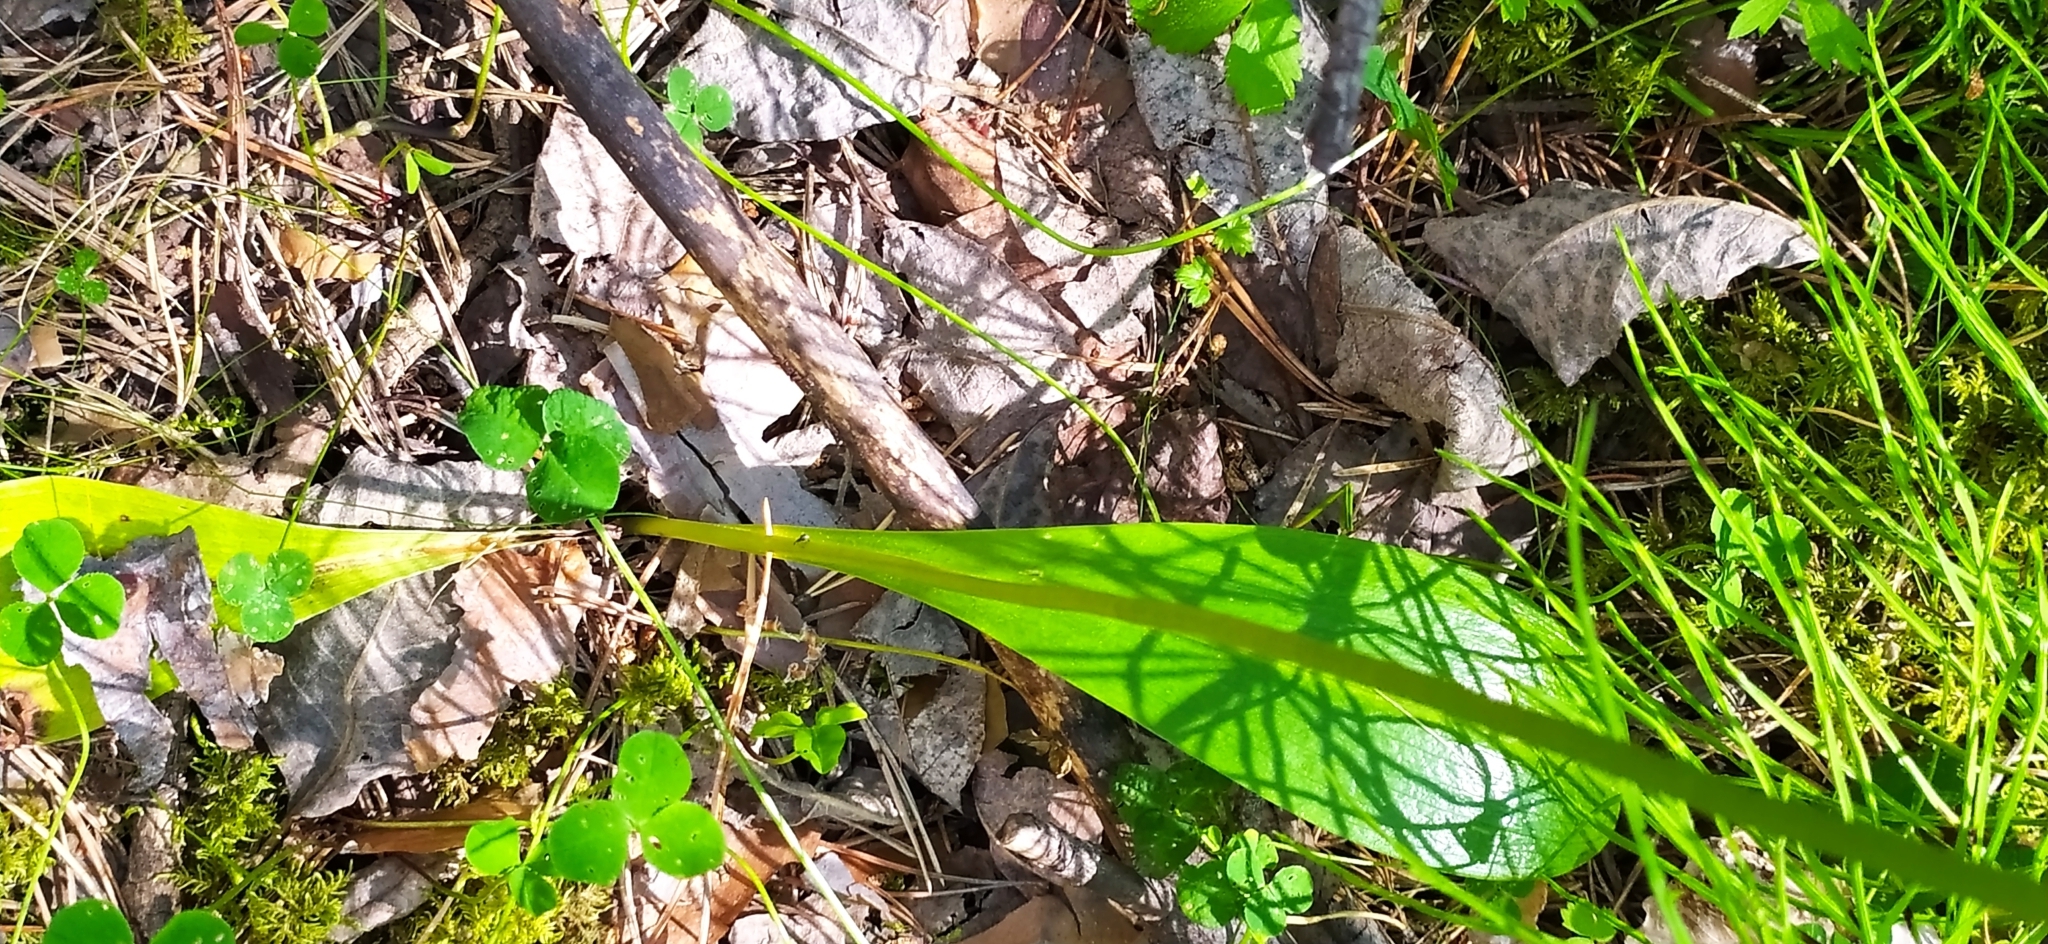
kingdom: Plantae
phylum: Tracheophyta
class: Liliopsida
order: Asparagales
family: Orchidaceae
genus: Platanthera
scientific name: Platanthera bifolia
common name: Lesser butterfly-orchid
